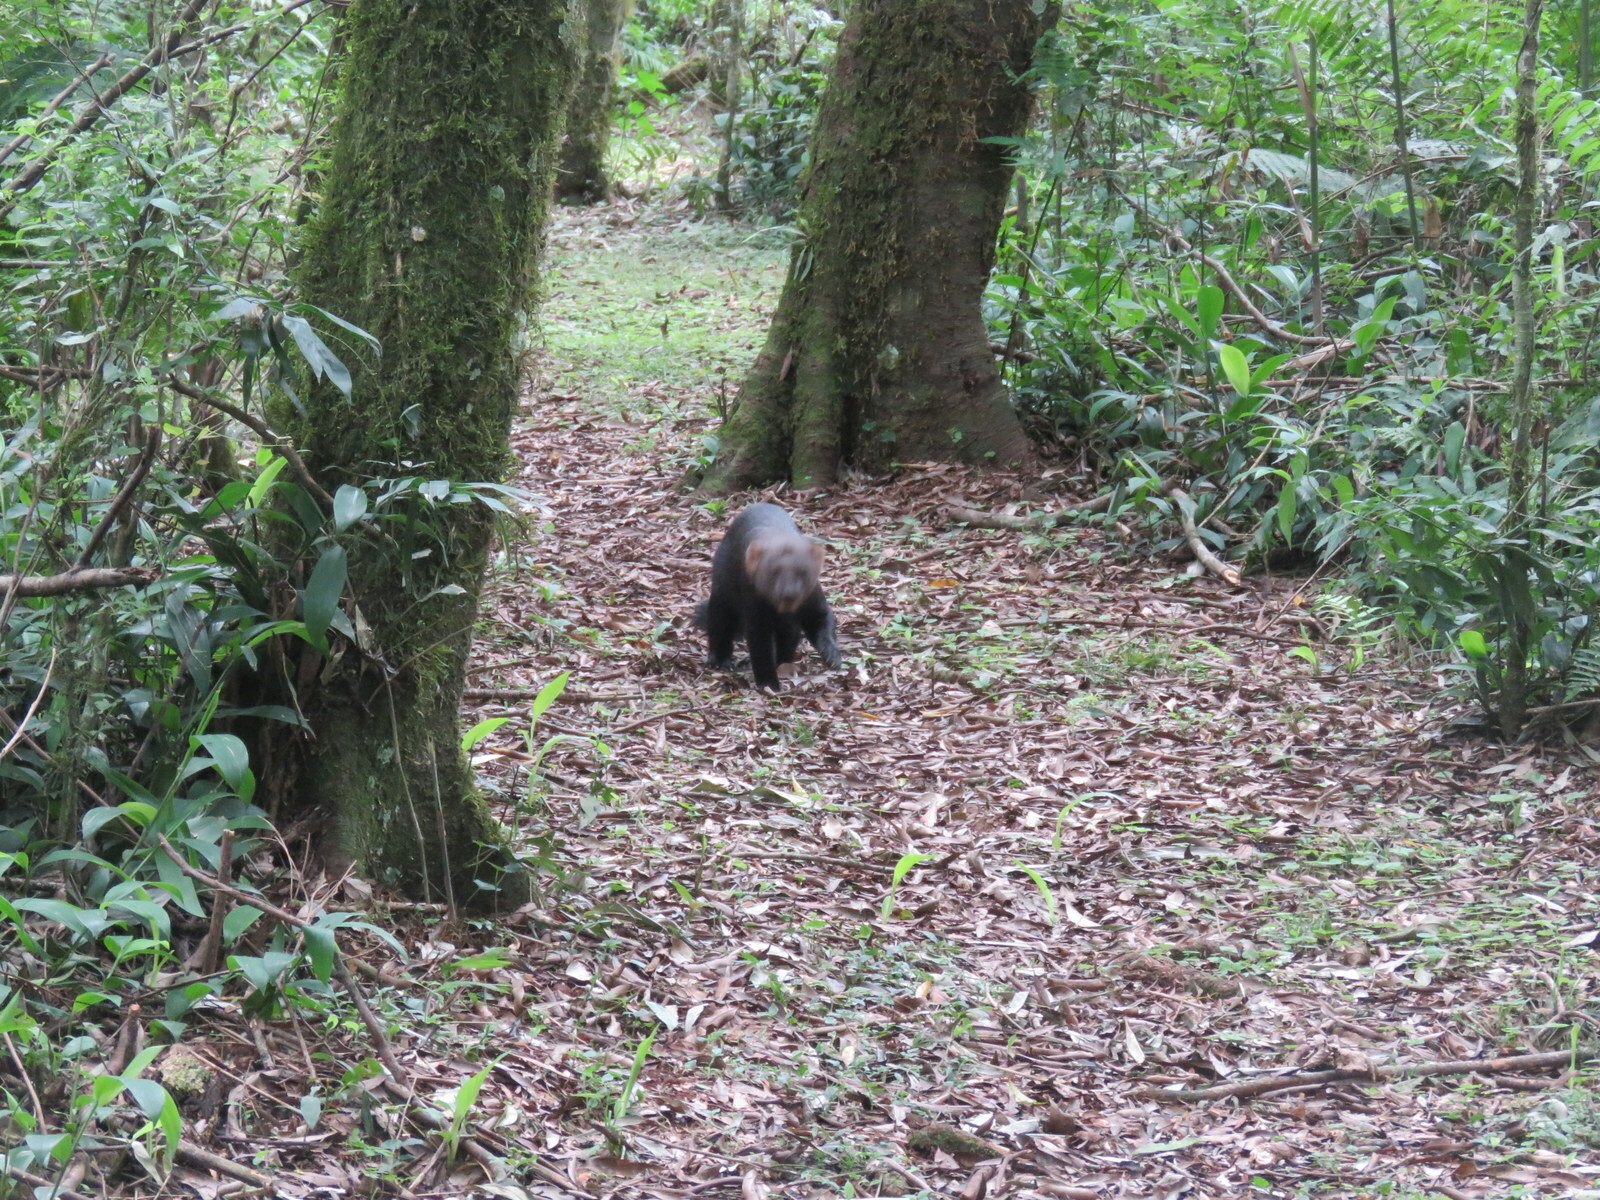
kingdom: Animalia
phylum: Chordata
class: Mammalia
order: Carnivora
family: Mustelidae
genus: Eira
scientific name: Eira barbara
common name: Tayra
